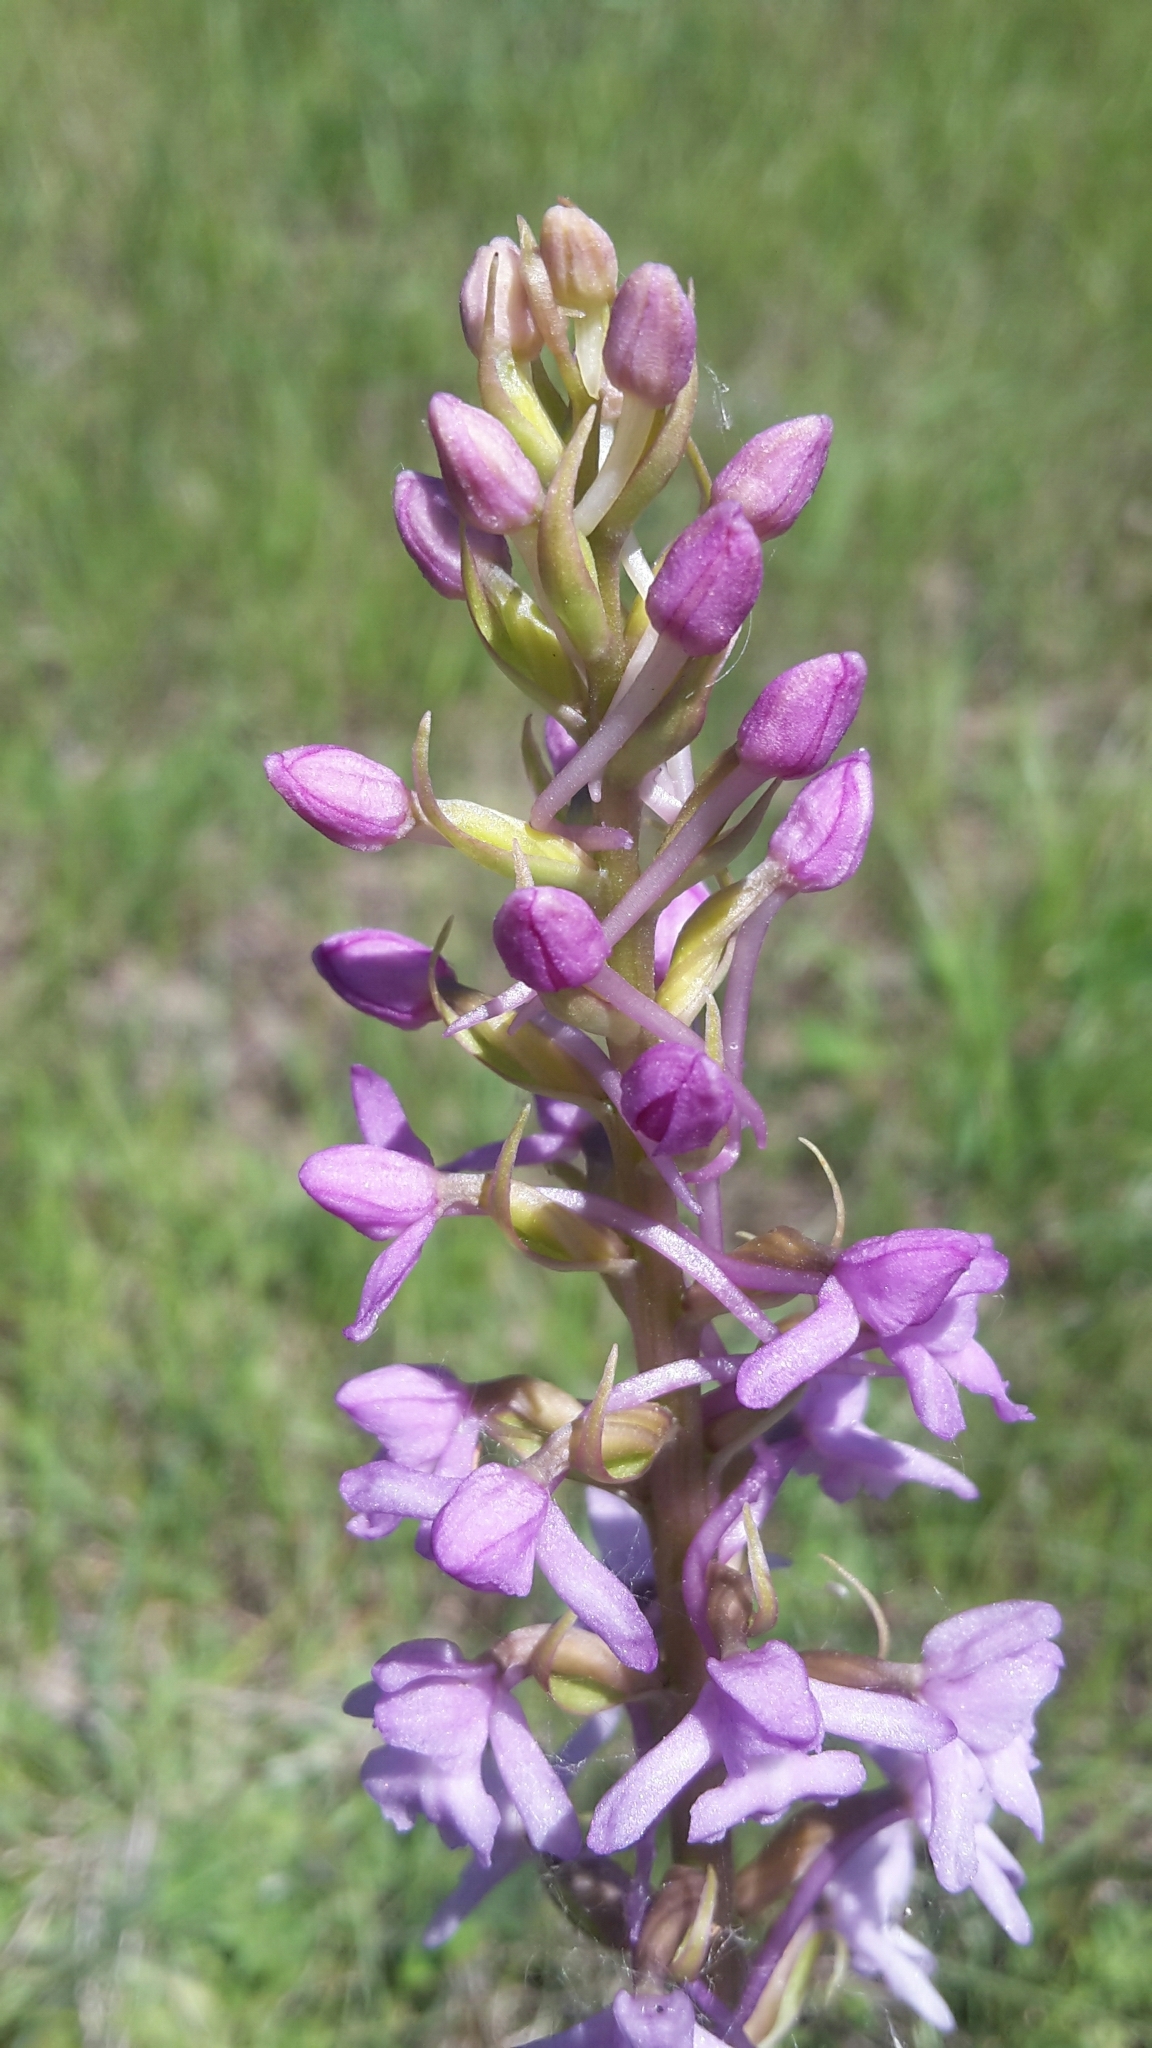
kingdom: Plantae
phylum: Tracheophyta
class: Liliopsida
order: Asparagales
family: Orchidaceae
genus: Gymnadenia
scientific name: Gymnadenia conopsea
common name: Fragrant orchid
